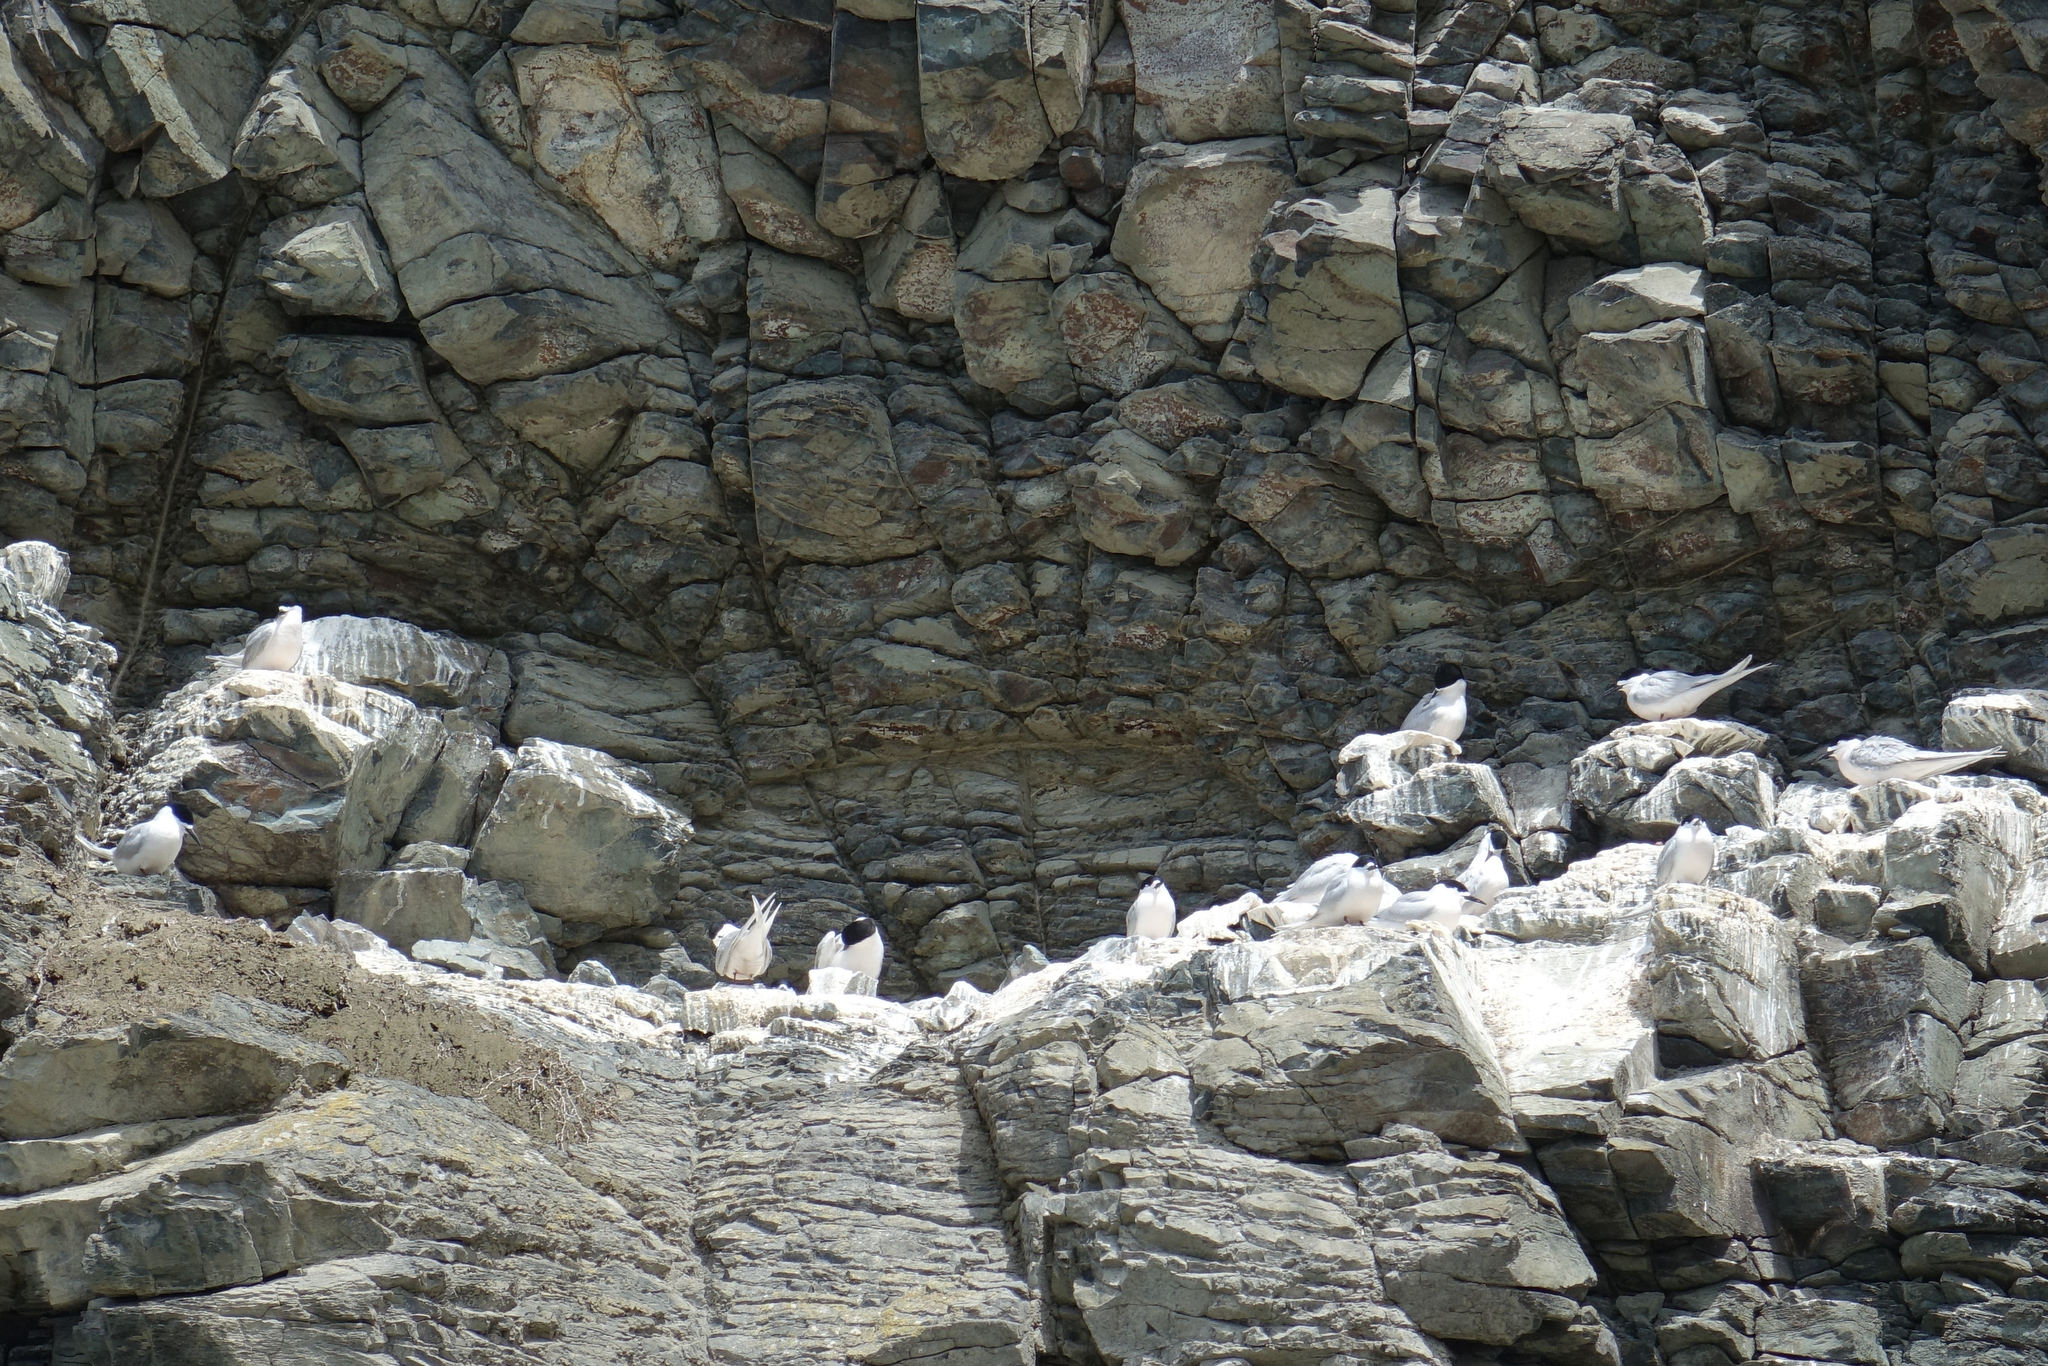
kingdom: Animalia
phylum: Chordata
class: Aves
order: Charadriiformes
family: Laridae
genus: Sterna
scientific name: Sterna striata
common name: White-fronted tern
